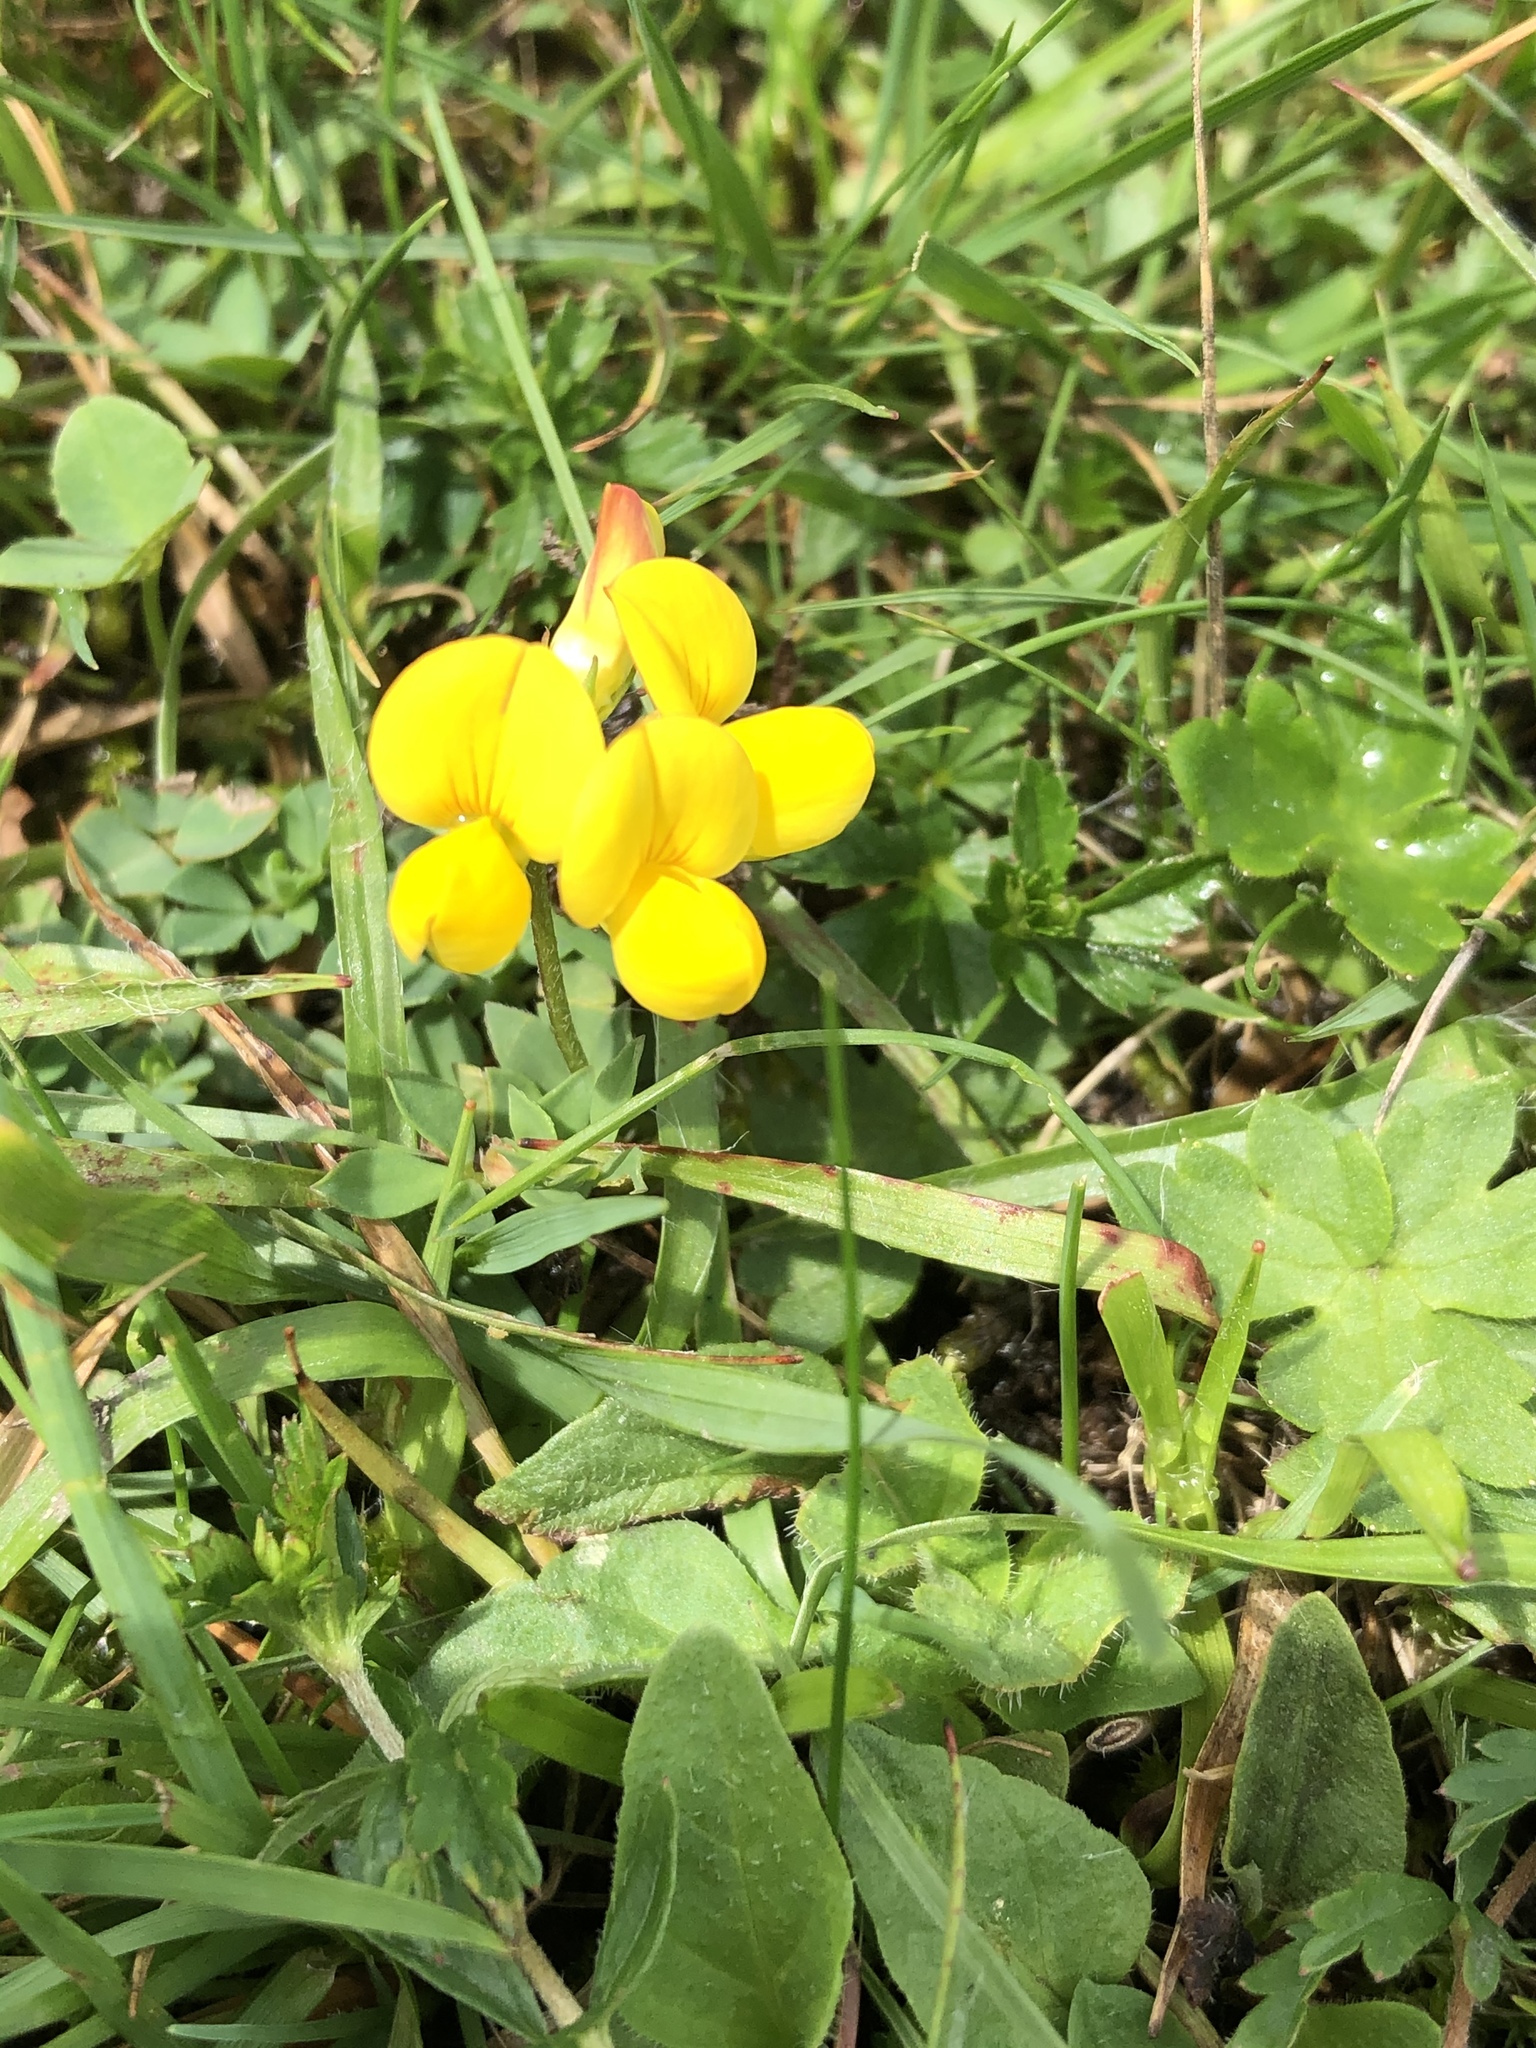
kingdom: Plantae
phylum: Tracheophyta
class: Magnoliopsida
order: Fabales
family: Fabaceae
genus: Lotus
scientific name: Lotus corniculatus
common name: Common bird's-foot-trefoil
